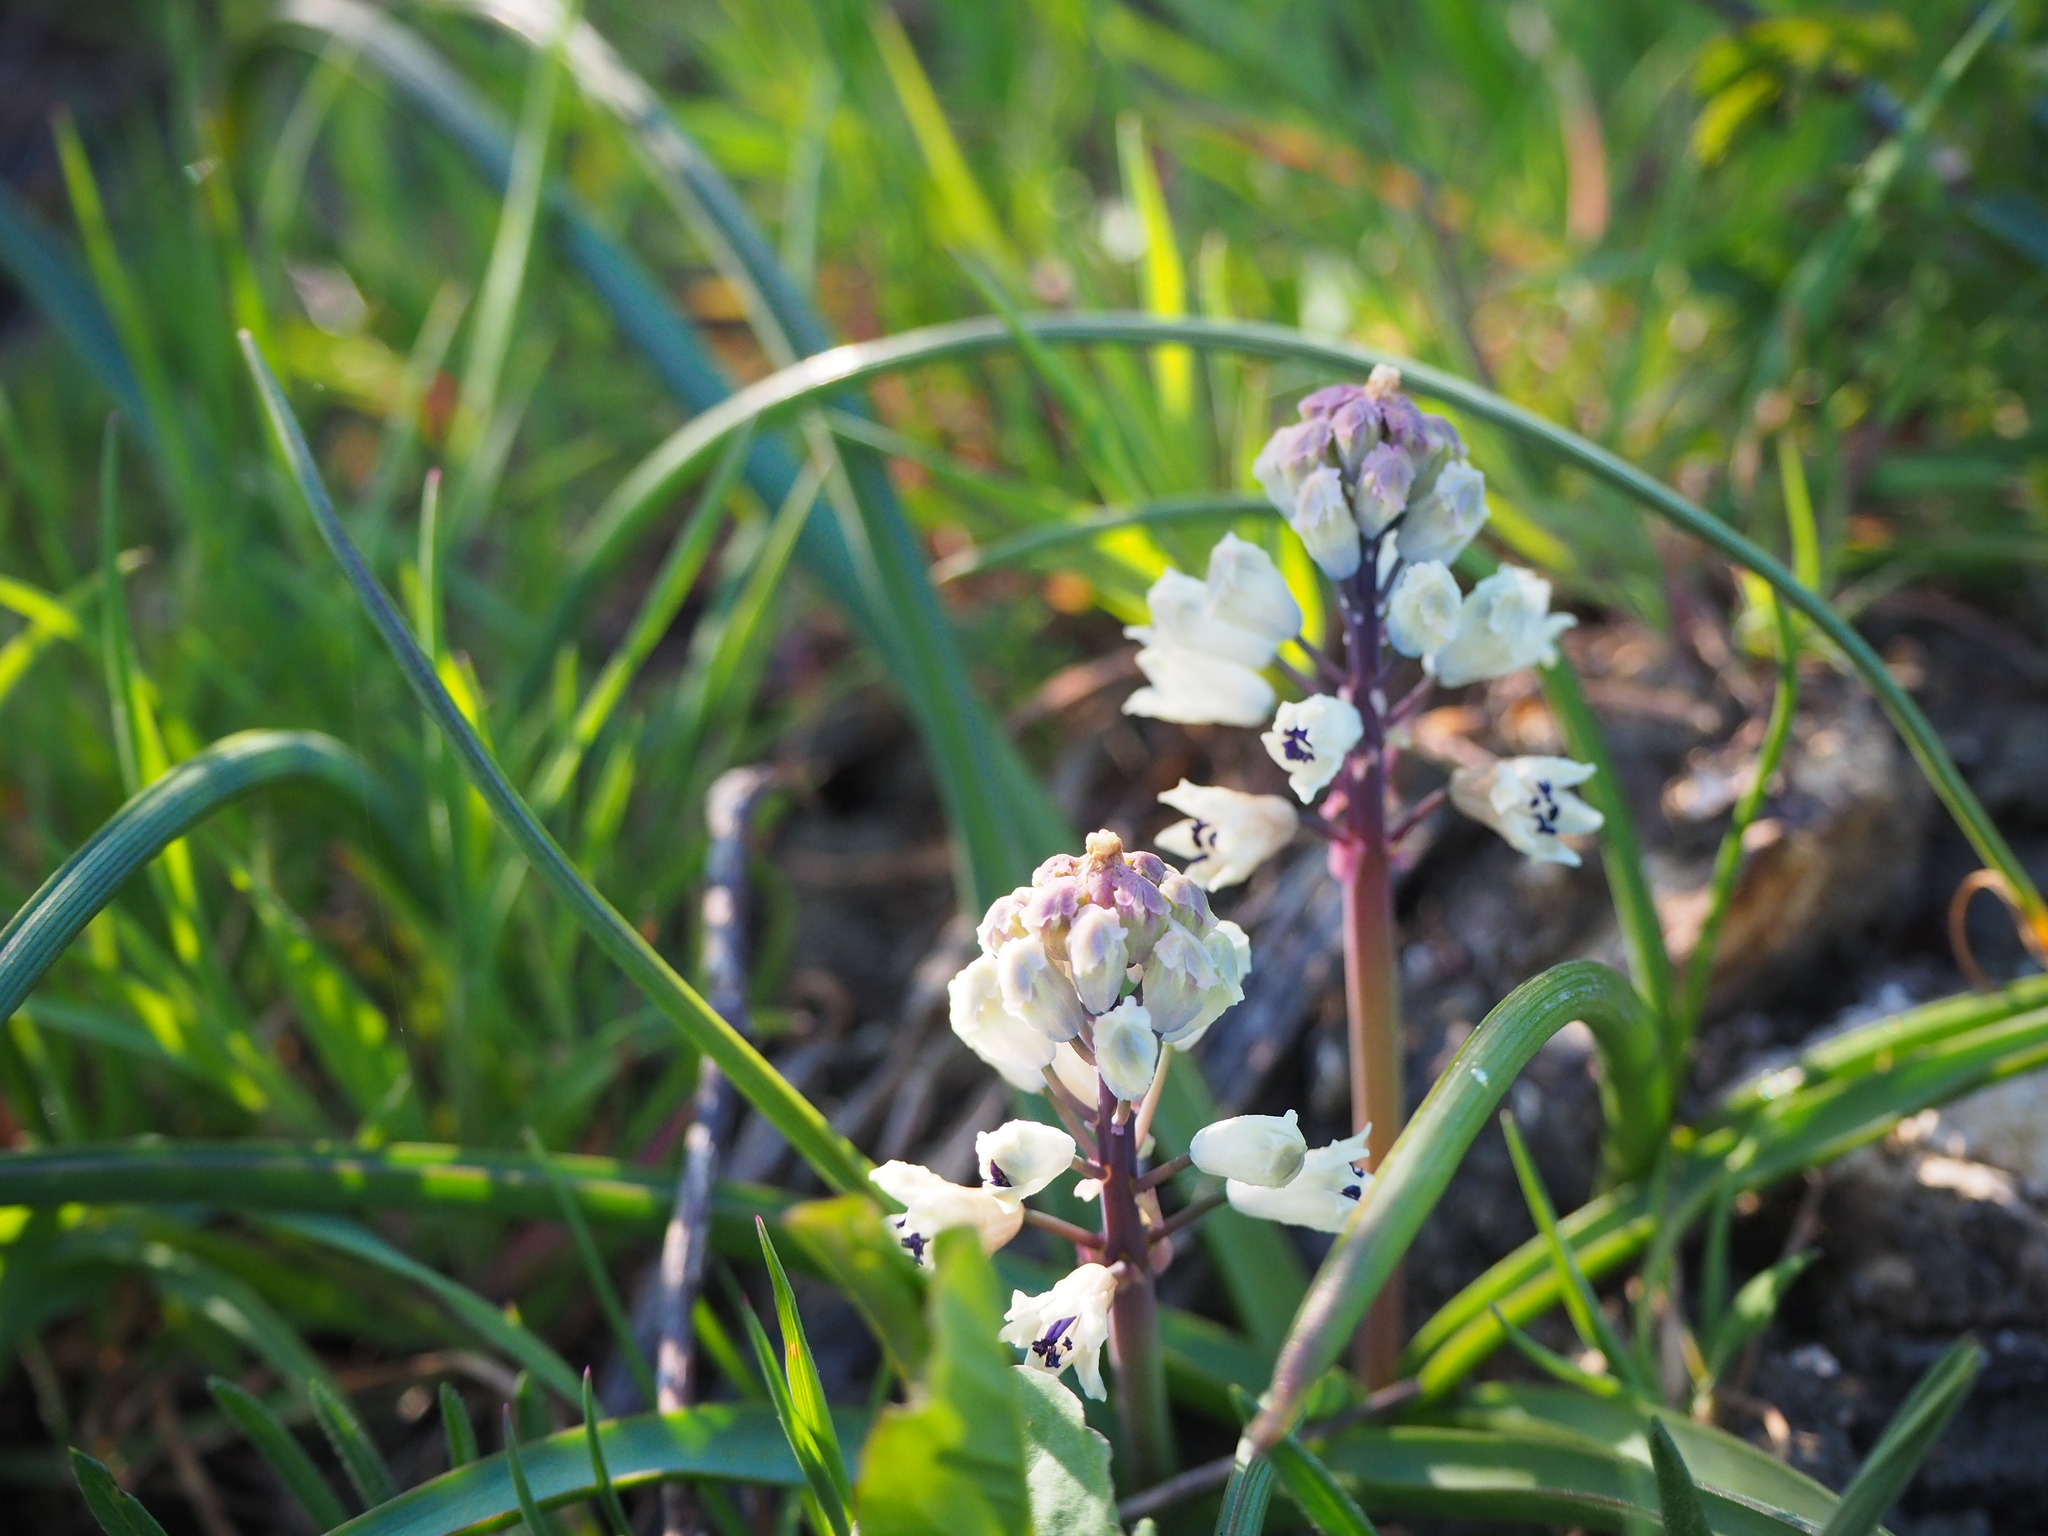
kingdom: Plantae
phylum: Tracheophyta
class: Liliopsida
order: Asparagales
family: Asparagaceae
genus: Bellevalia
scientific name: Bellevalia romana
